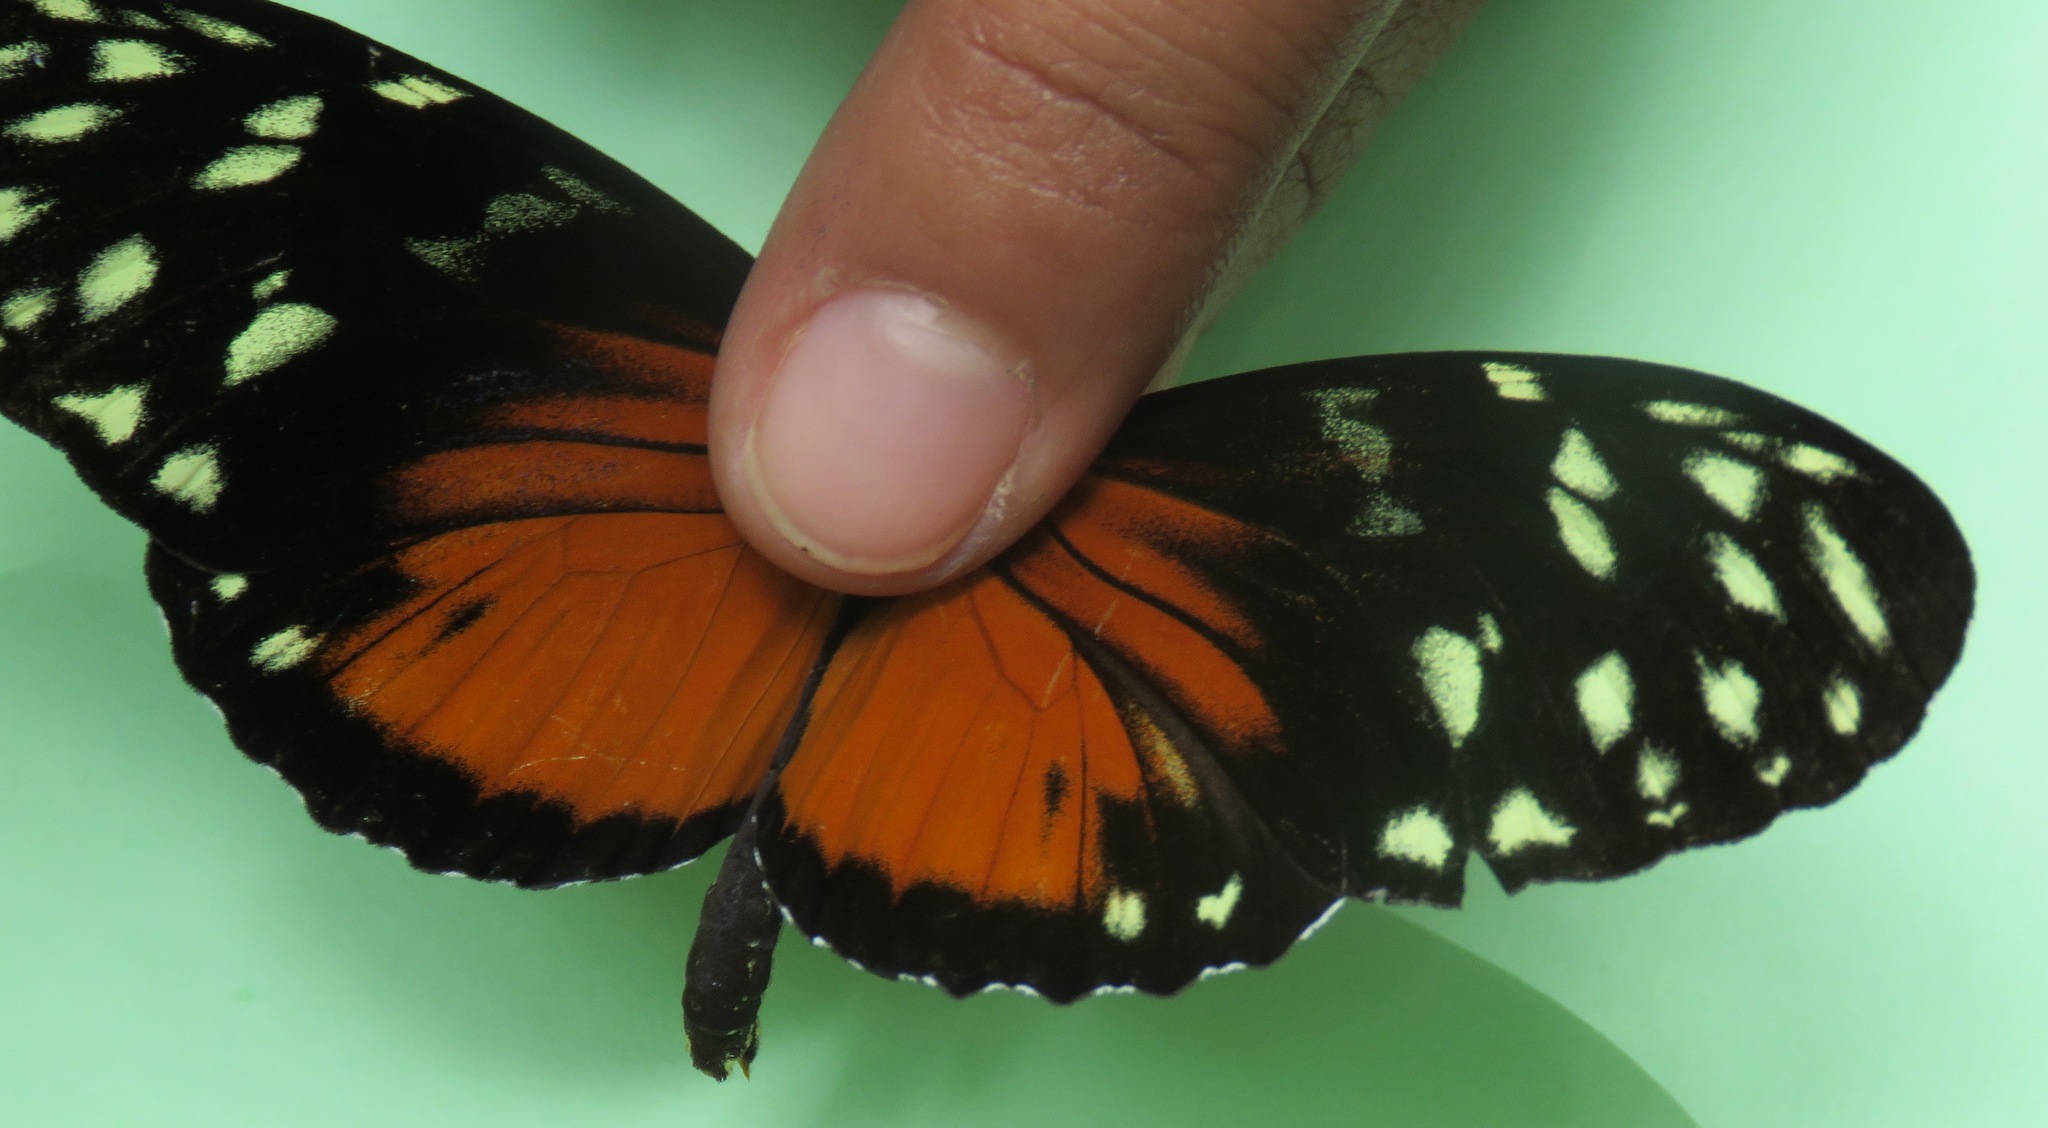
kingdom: Animalia
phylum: Arthropoda
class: Insecta
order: Lepidoptera
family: Nymphalidae
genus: Heliconius
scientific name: Heliconius hecale
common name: Tiger longwing
